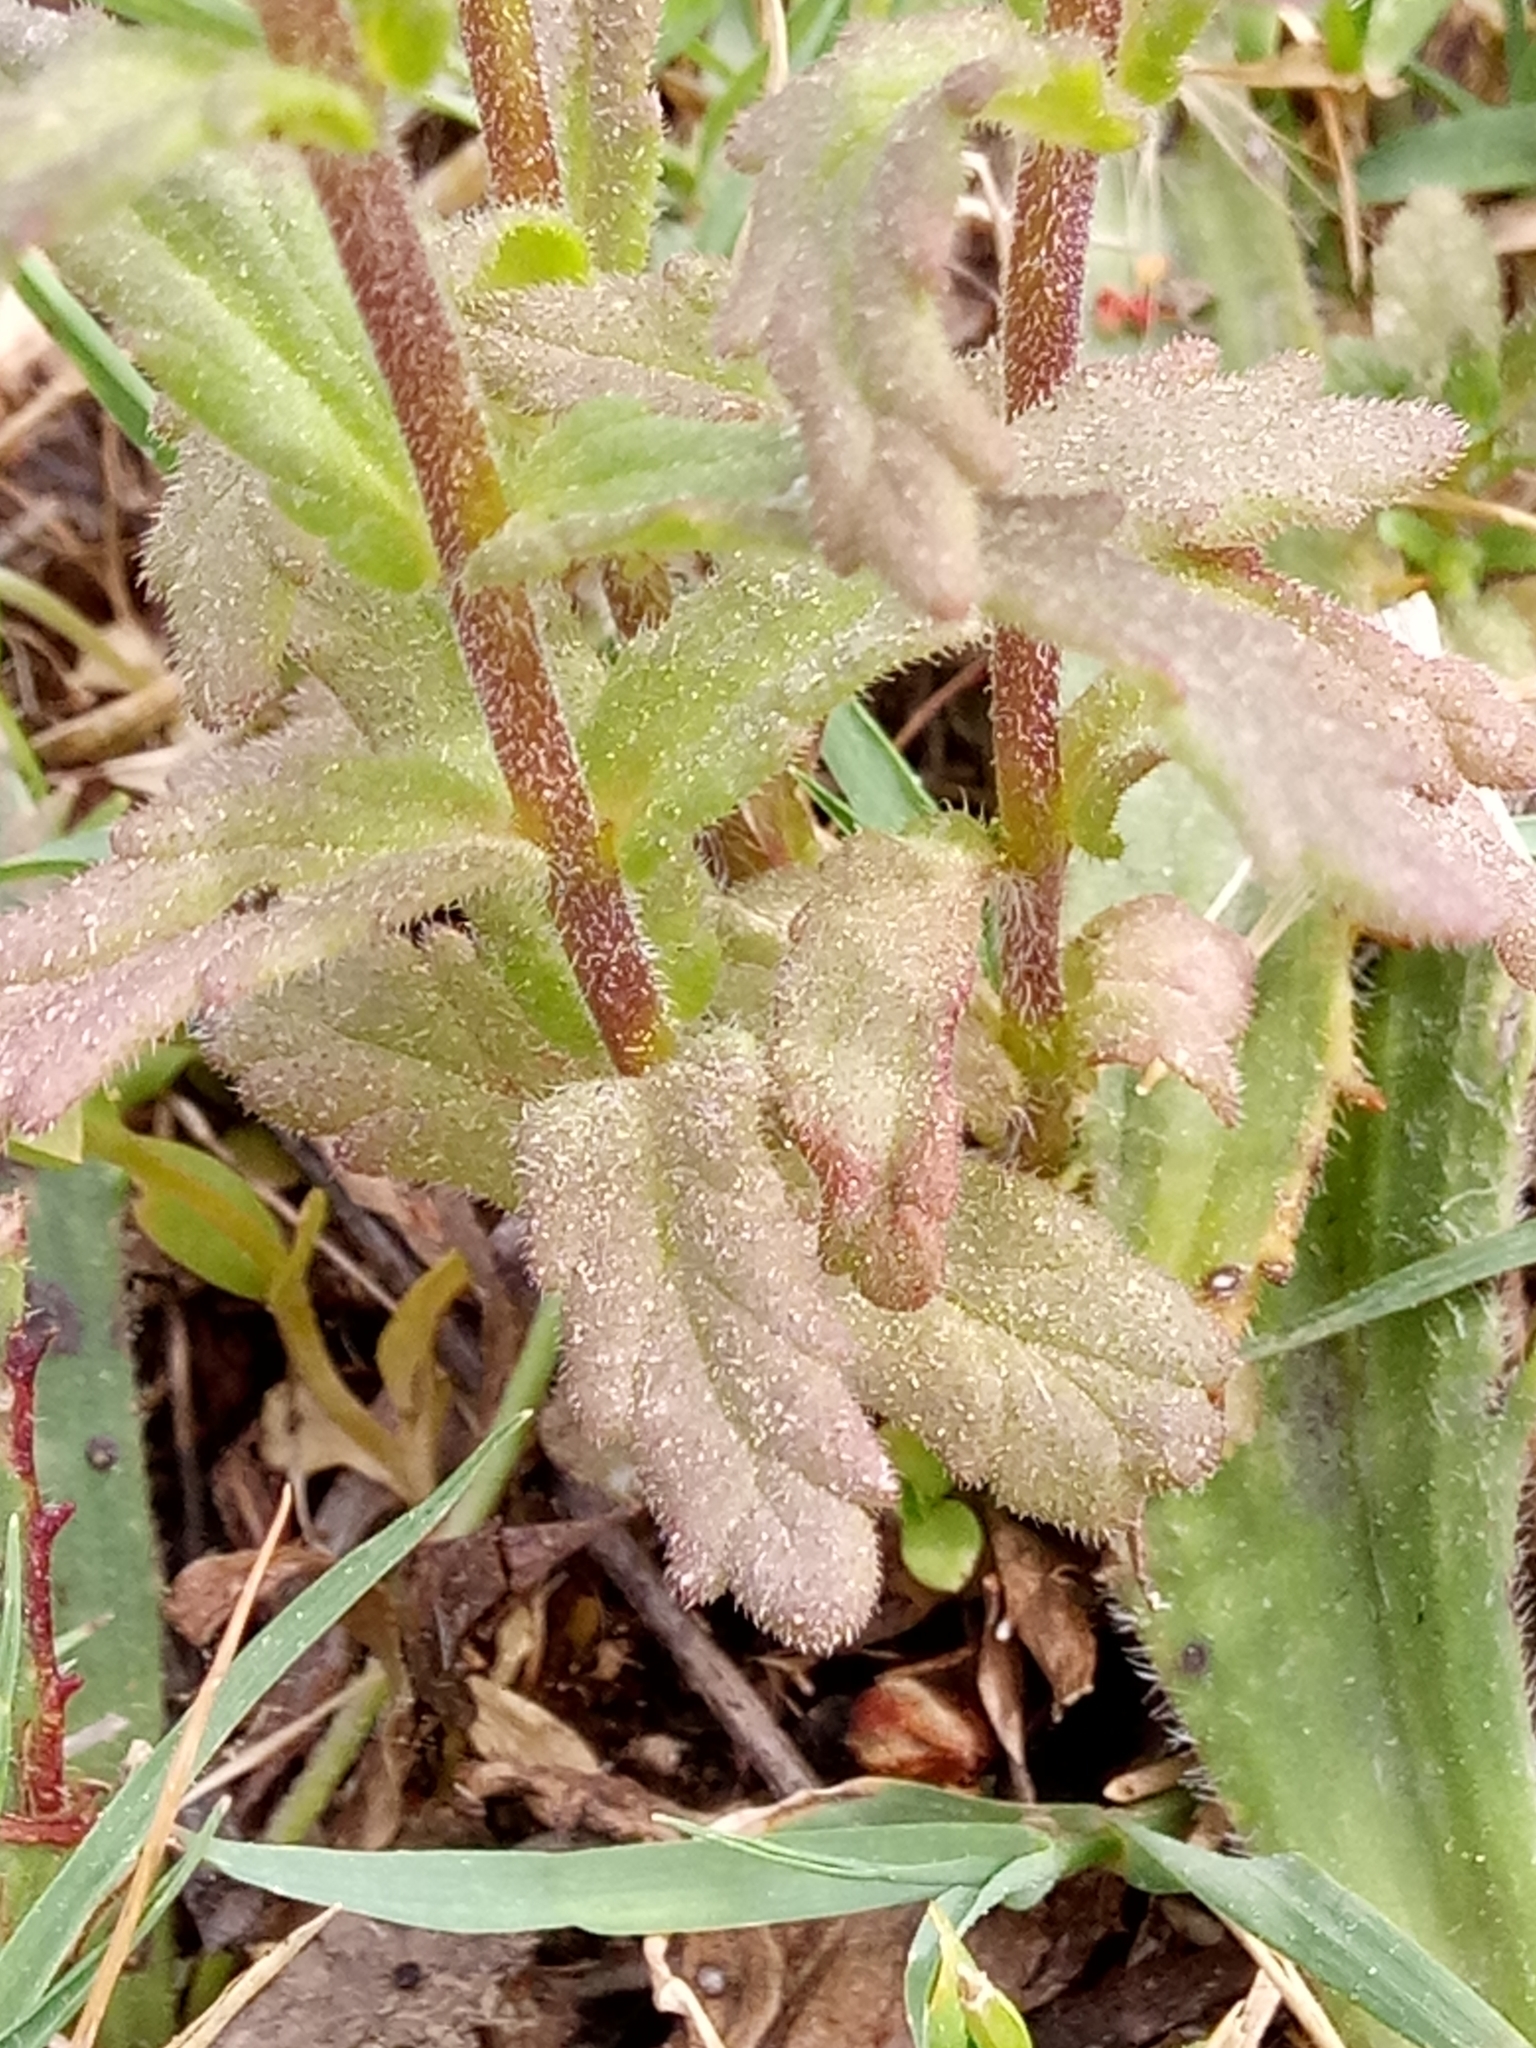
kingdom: Plantae
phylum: Tracheophyta
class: Magnoliopsida
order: Lamiales
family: Orobanchaceae
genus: Bellardia
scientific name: Bellardia trixago
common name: Mediterranean lineseed
